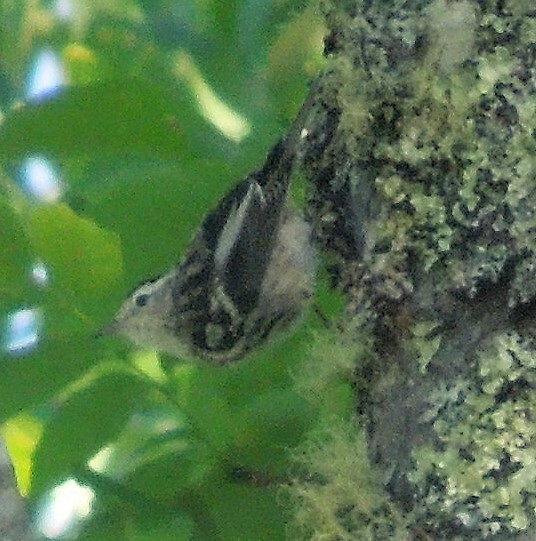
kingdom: Animalia
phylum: Chordata
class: Aves
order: Passeriformes
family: Parulidae
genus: Mniotilta
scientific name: Mniotilta varia
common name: Black-and-white warbler
